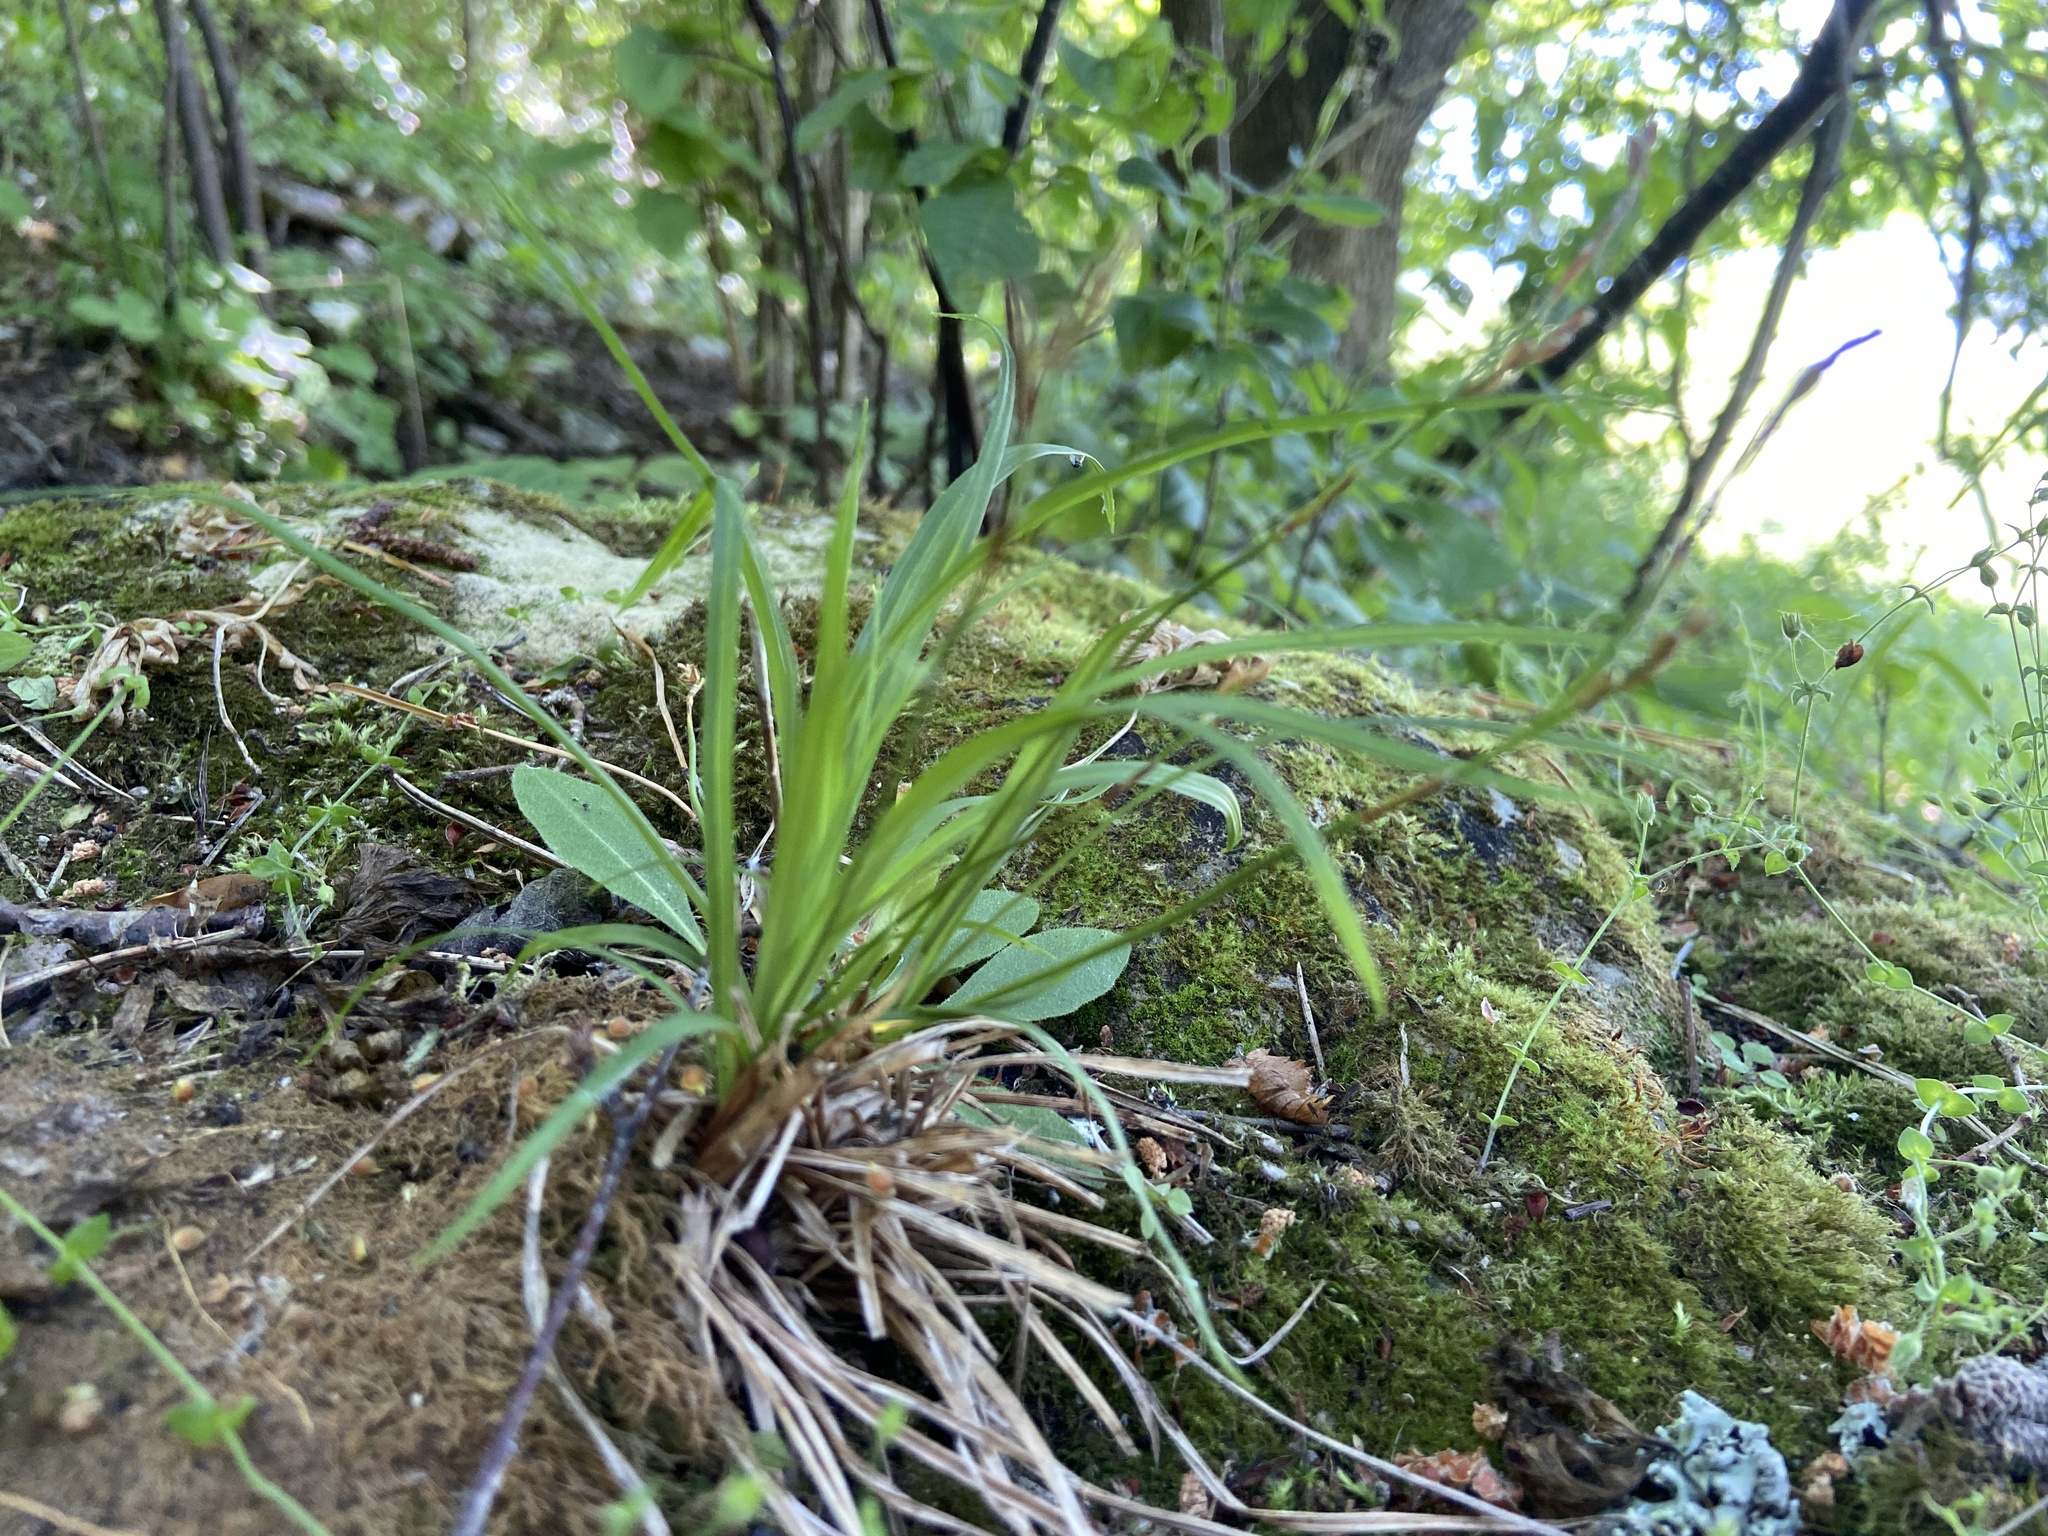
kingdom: Plantae
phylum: Tracheophyta
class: Liliopsida
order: Poales
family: Cyperaceae
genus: Carex
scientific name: Carex digitata
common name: Fingered sedge
